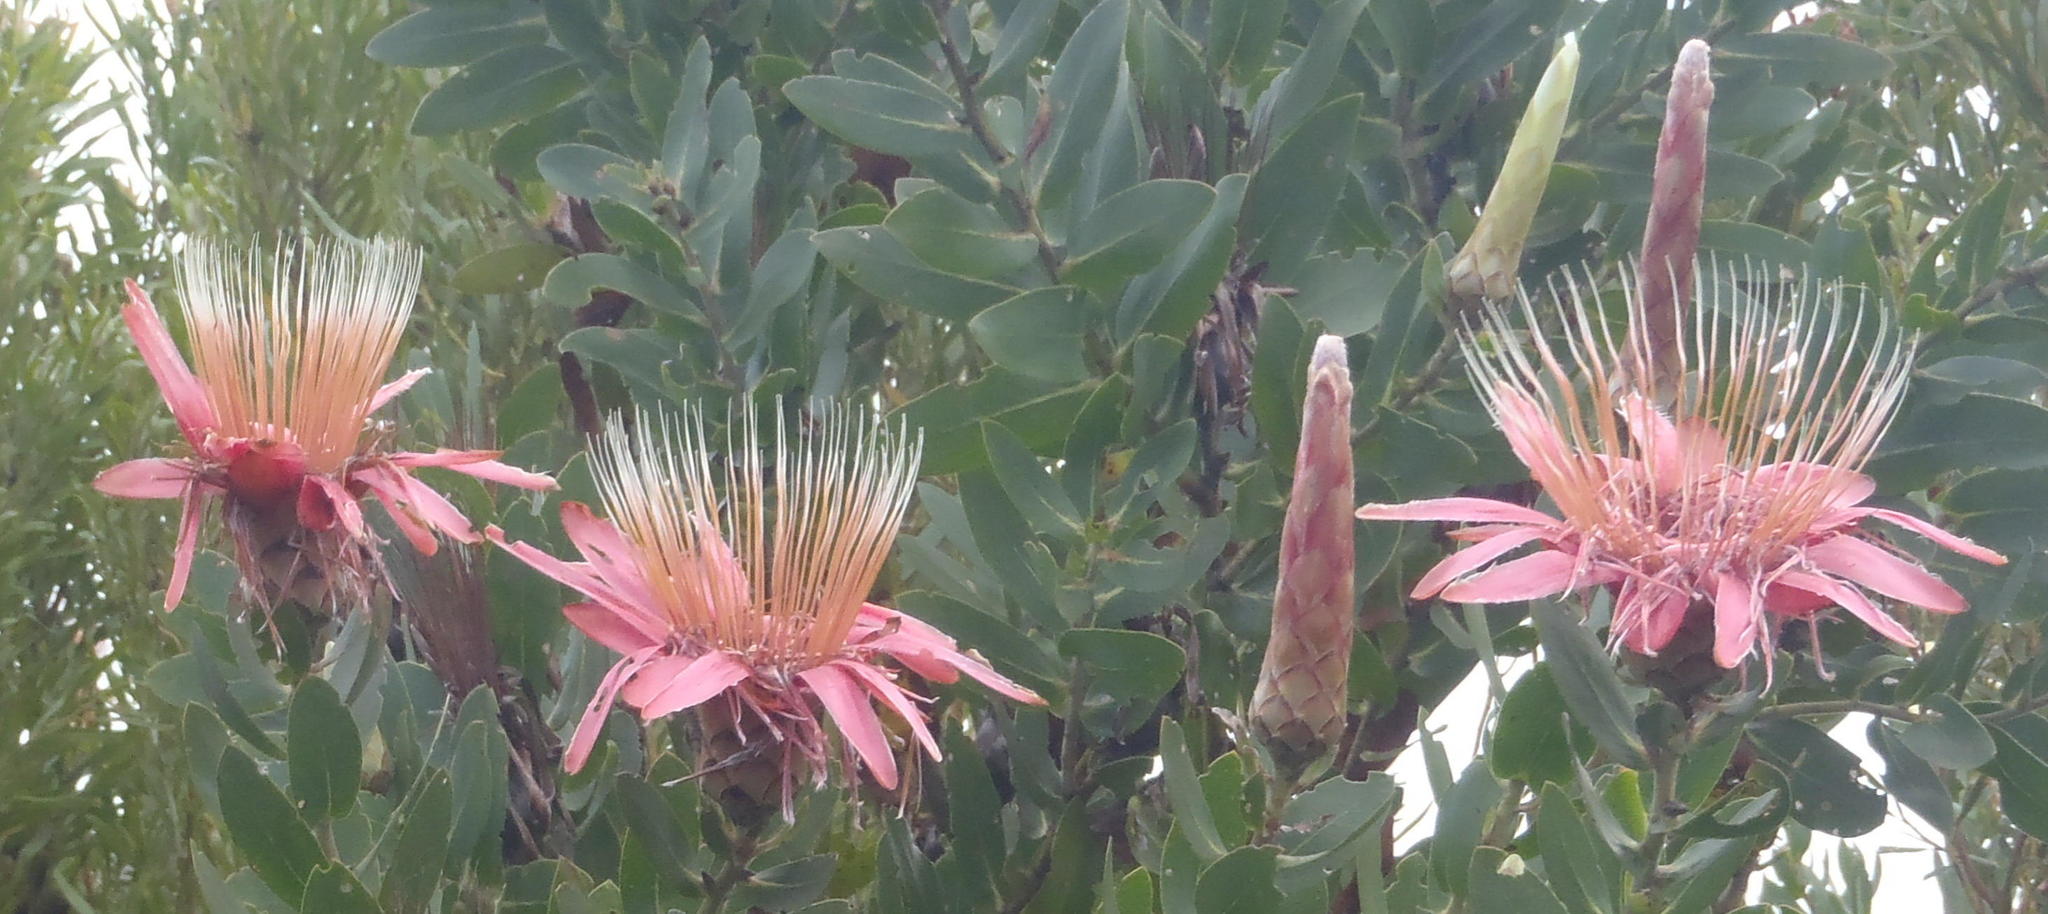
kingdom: Plantae
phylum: Tracheophyta
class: Magnoliopsida
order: Proteales
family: Proteaceae
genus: Protea
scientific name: Protea aurea
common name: Shuttlecock sugarbush
